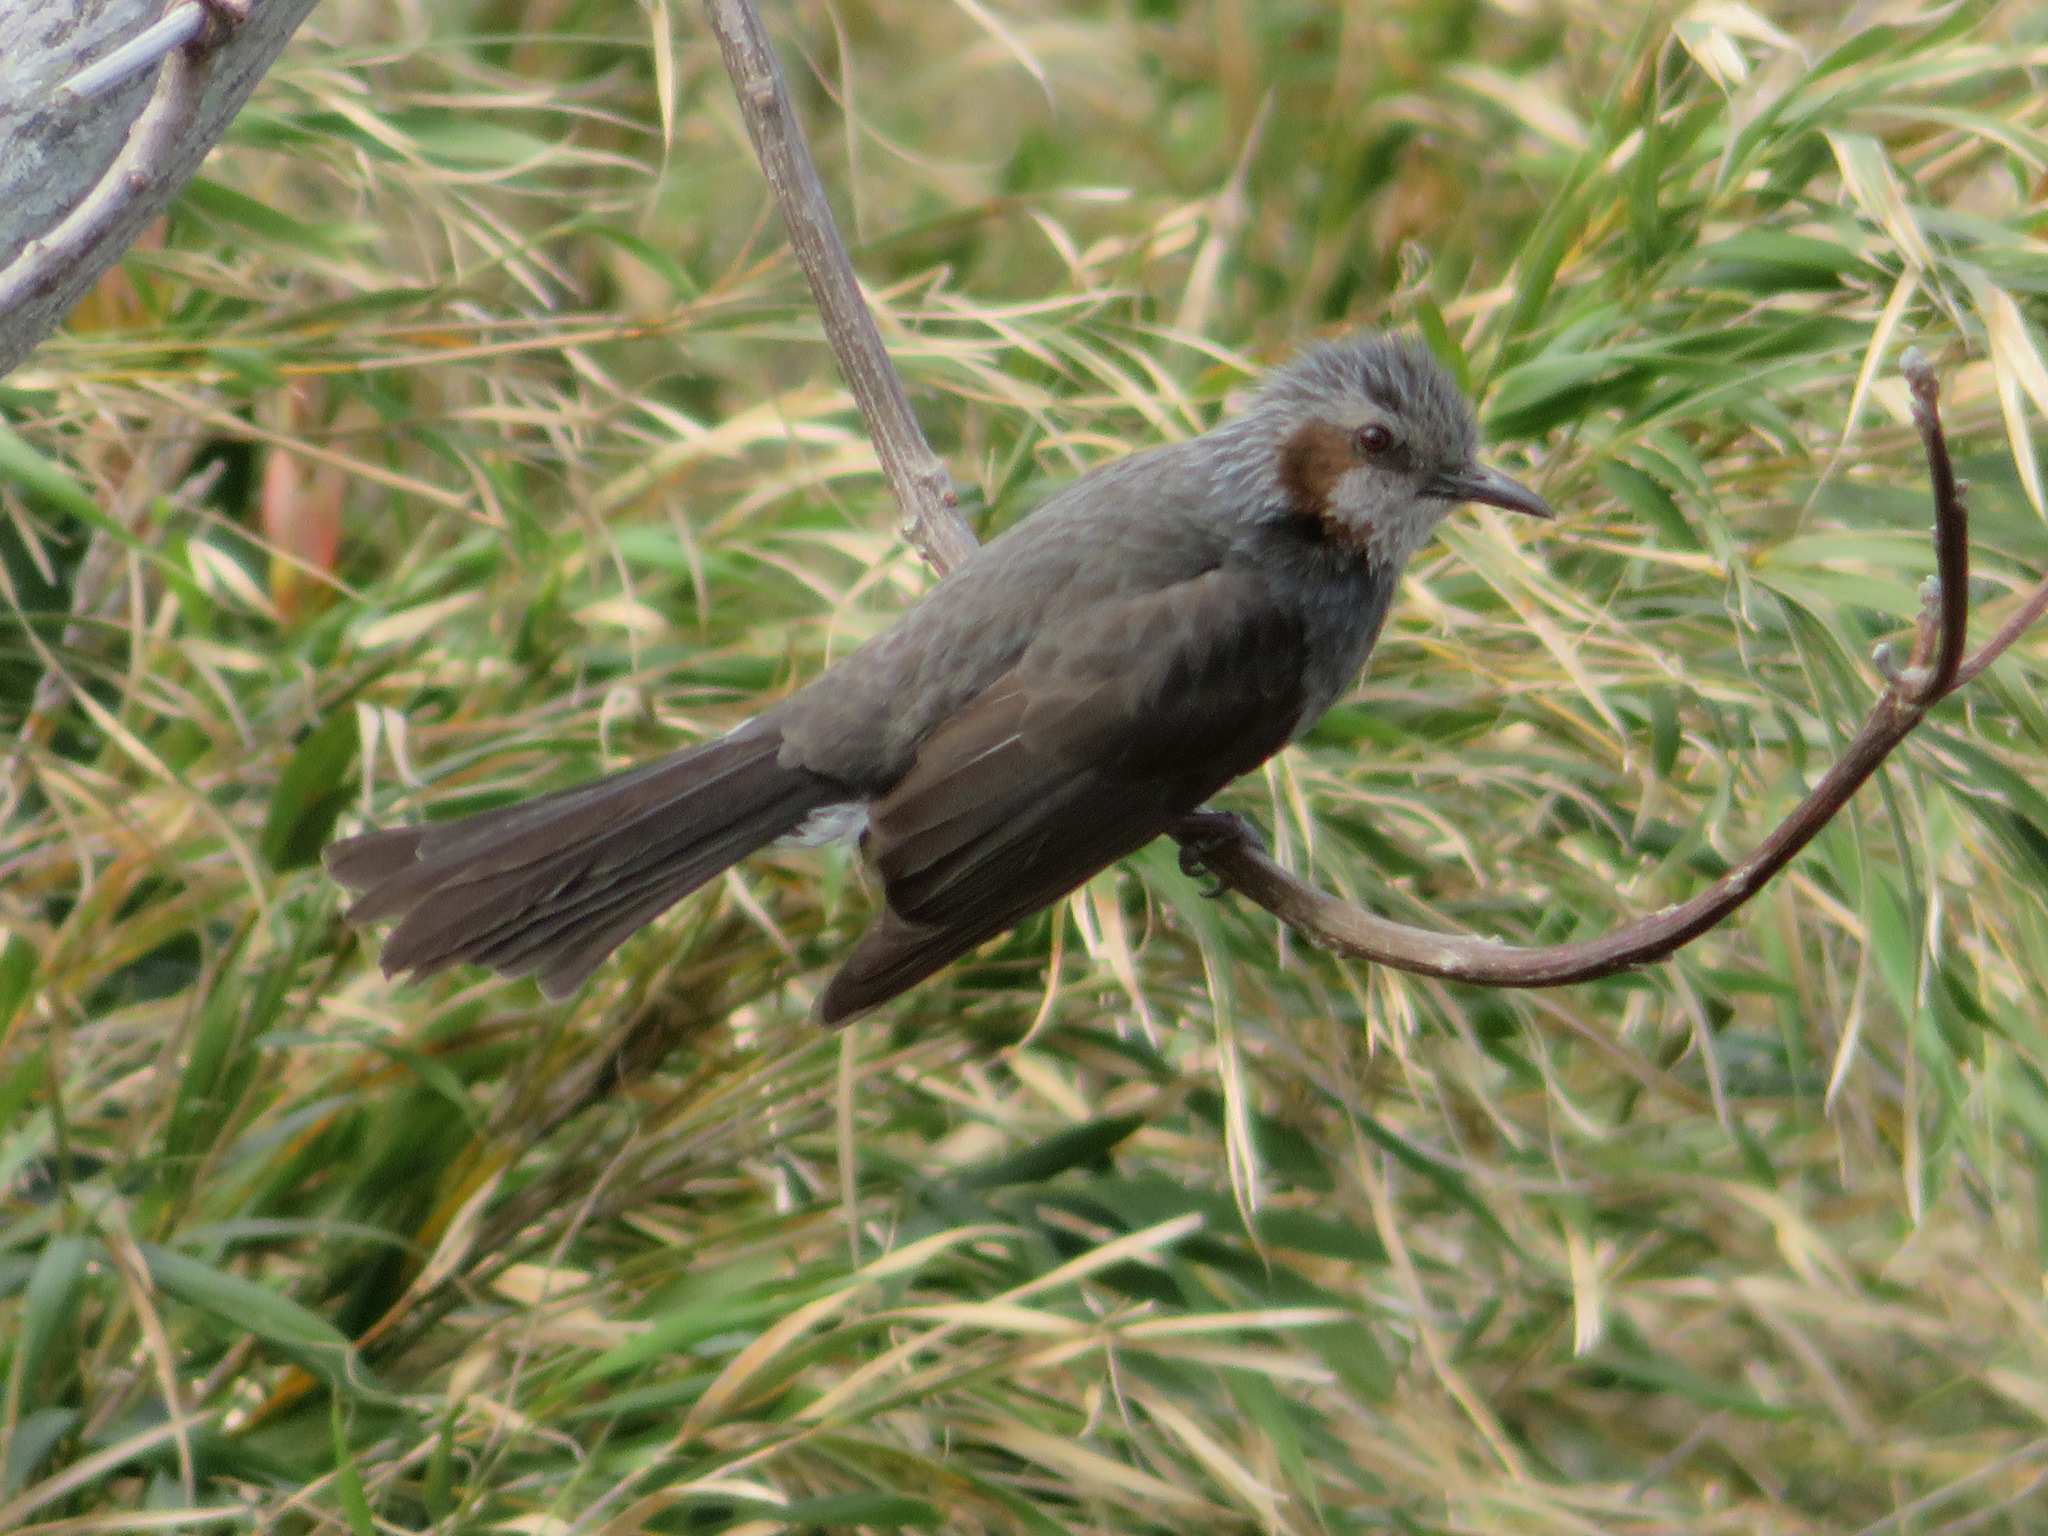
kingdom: Animalia
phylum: Chordata
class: Aves
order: Passeriformes
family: Pycnonotidae
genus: Hypsipetes
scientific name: Hypsipetes amaurotis
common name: Brown-eared bulbul
